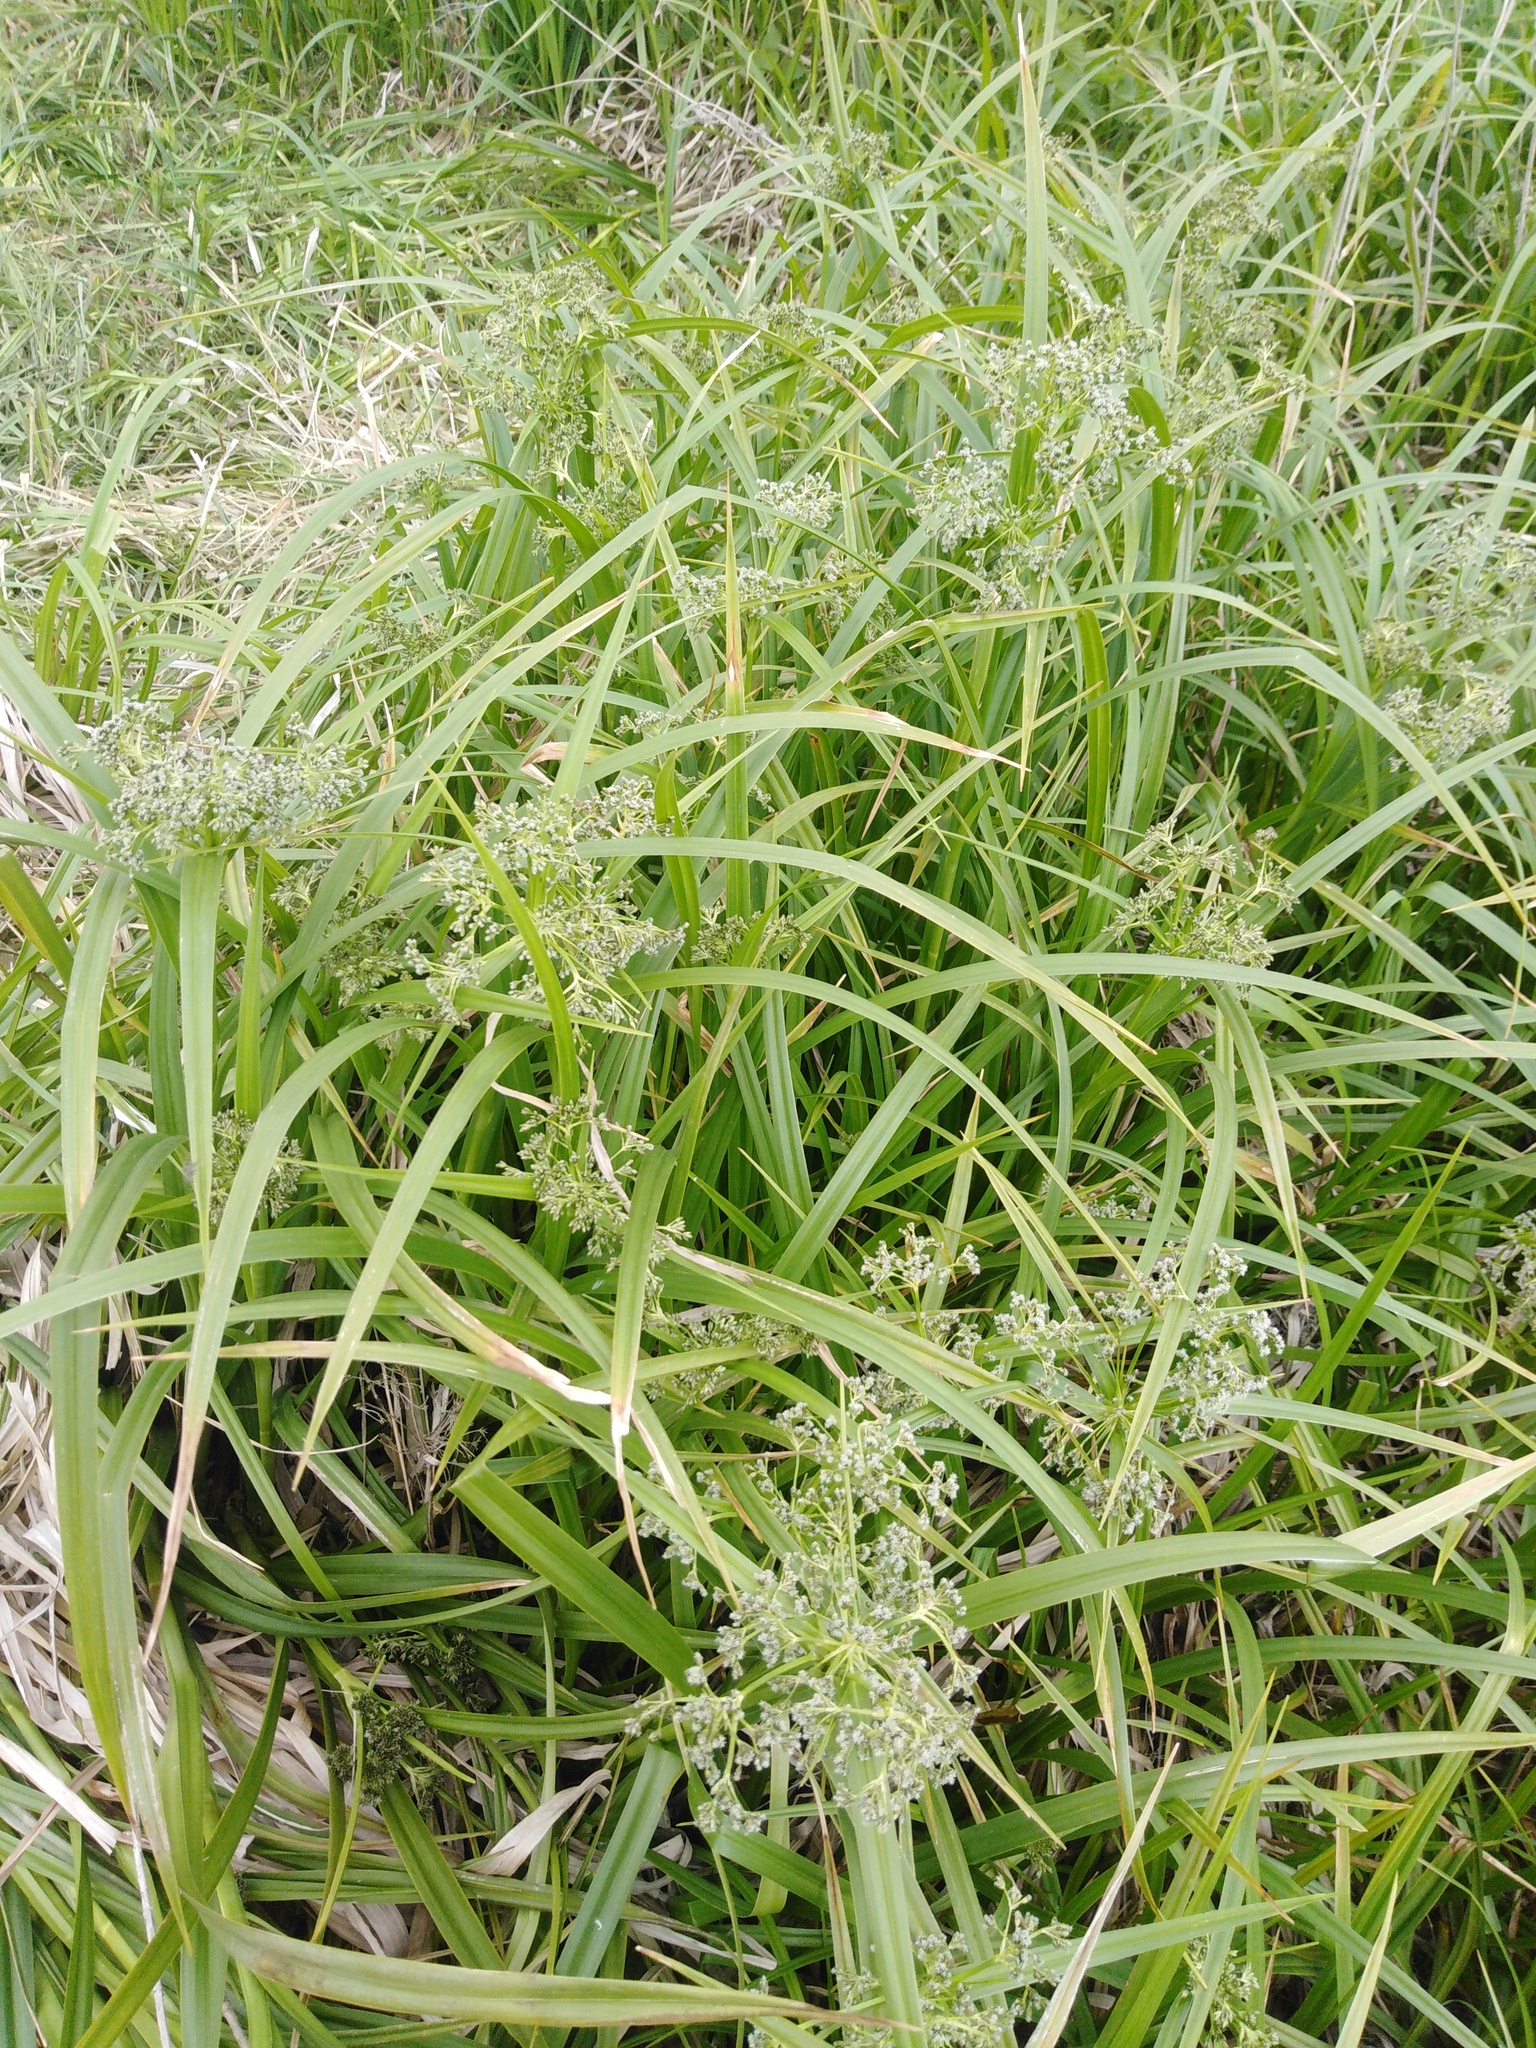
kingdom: Plantae
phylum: Tracheophyta
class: Liliopsida
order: Poales
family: Cyperaceae
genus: Scirpus
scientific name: Scirpus sylvaticus
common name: Wood club-rush
